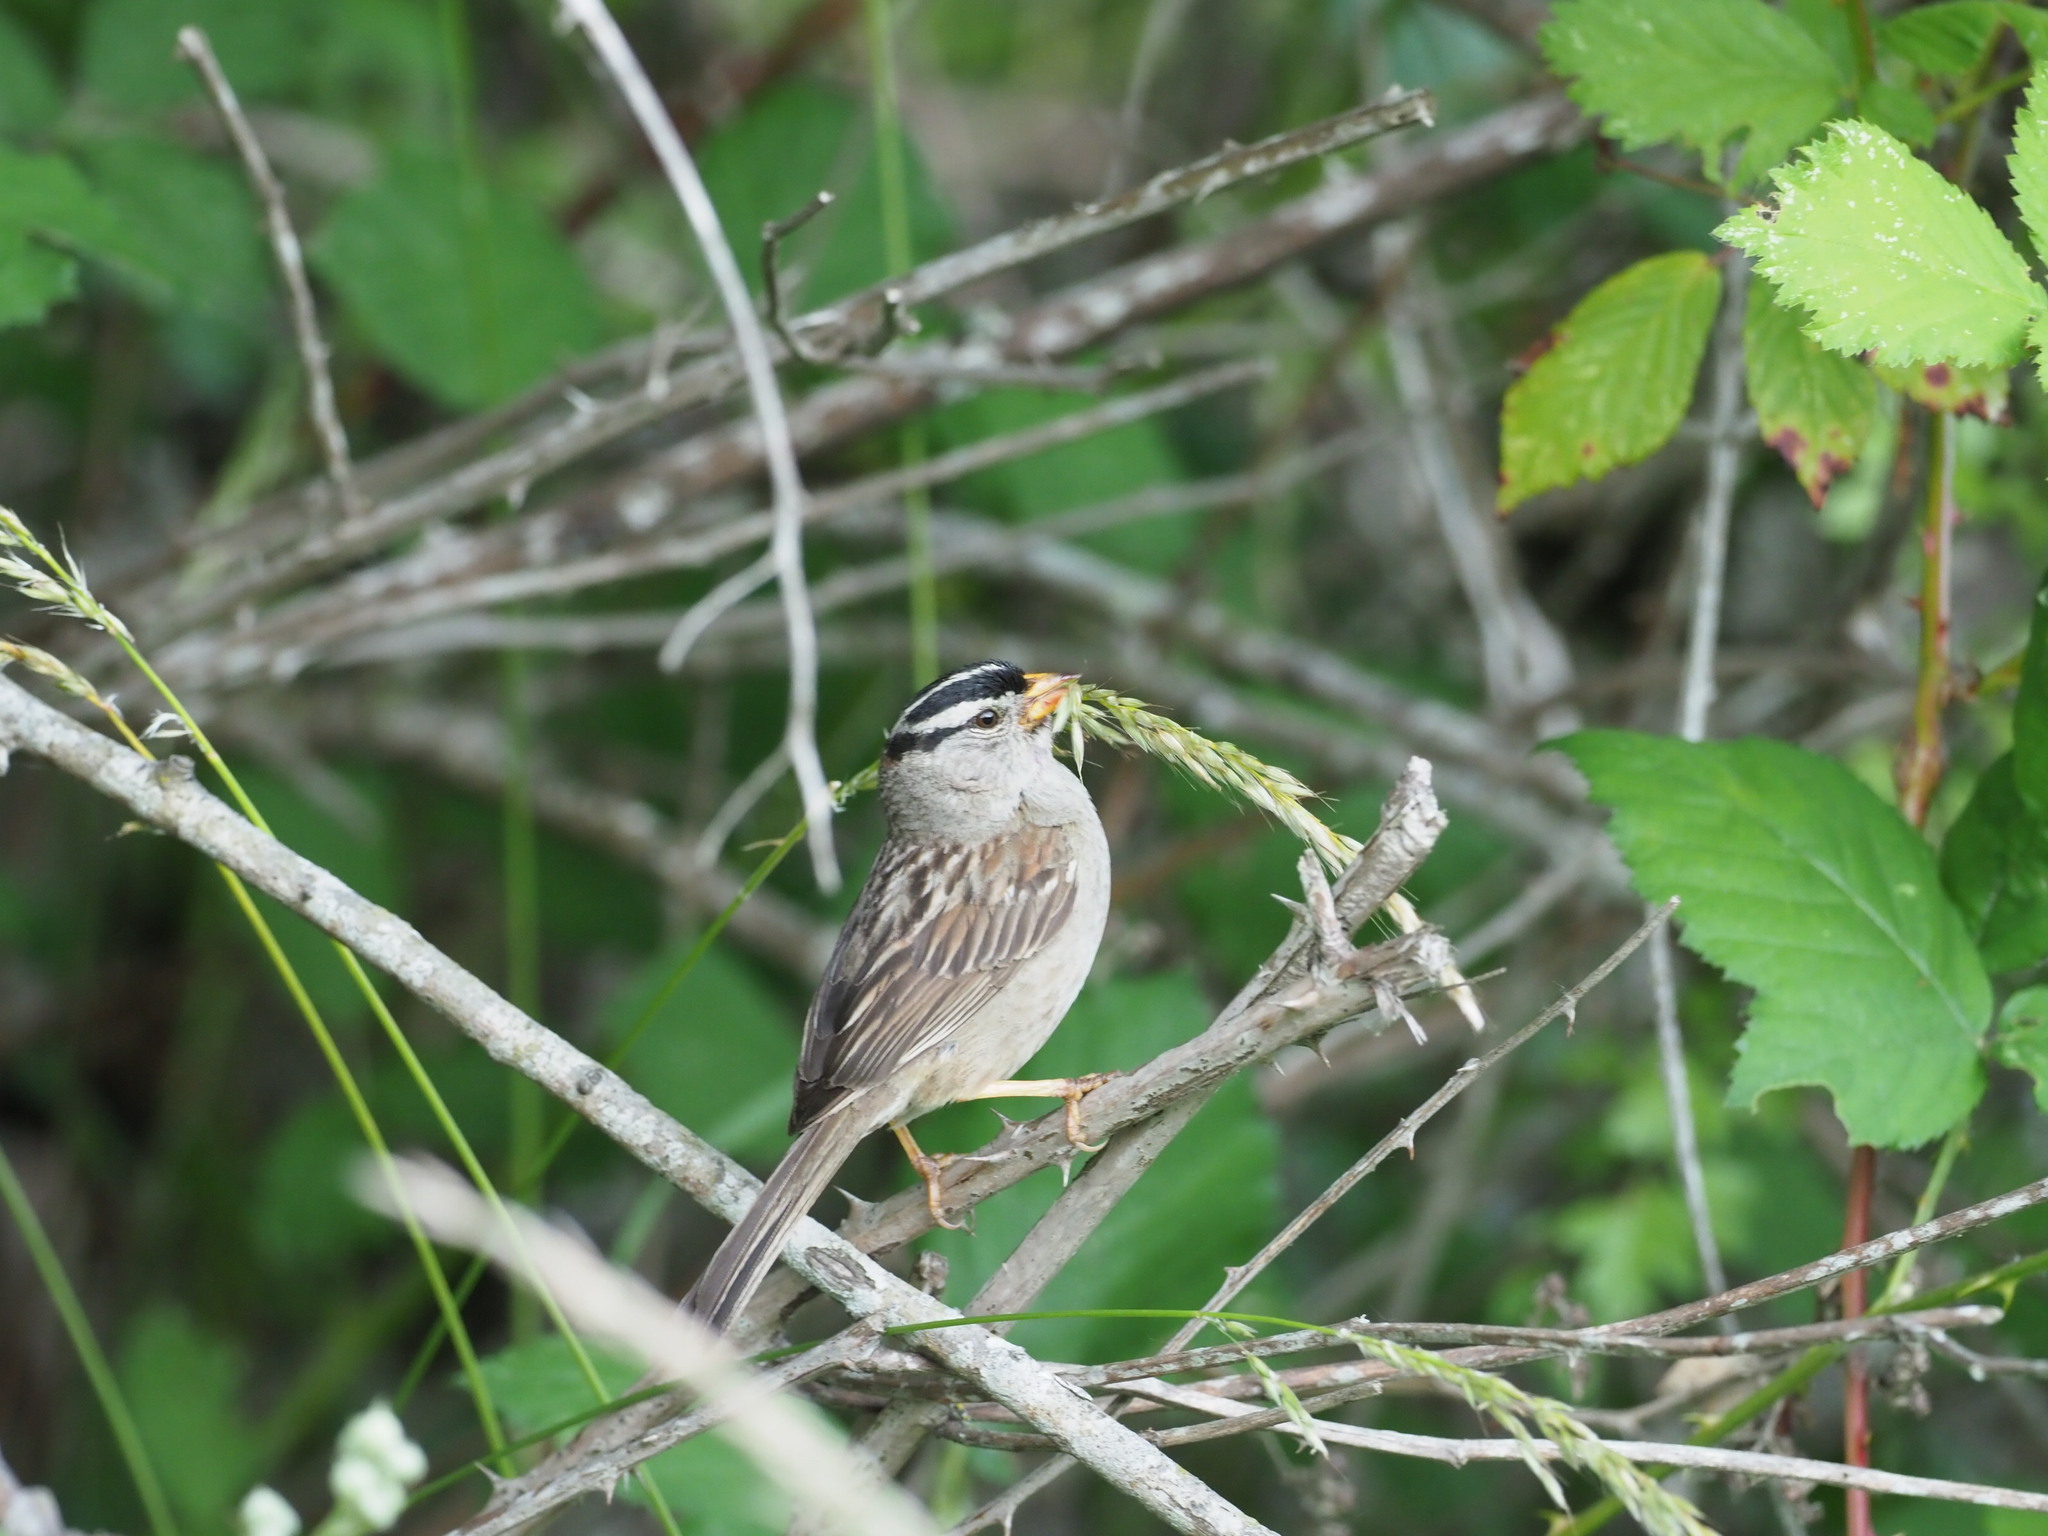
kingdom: Animalia
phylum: Chordata
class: Aves
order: Passeriformes
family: Passerellidae
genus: Zonotrichia
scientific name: Zonotrichia leucophrys
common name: White-crowned sparrow
